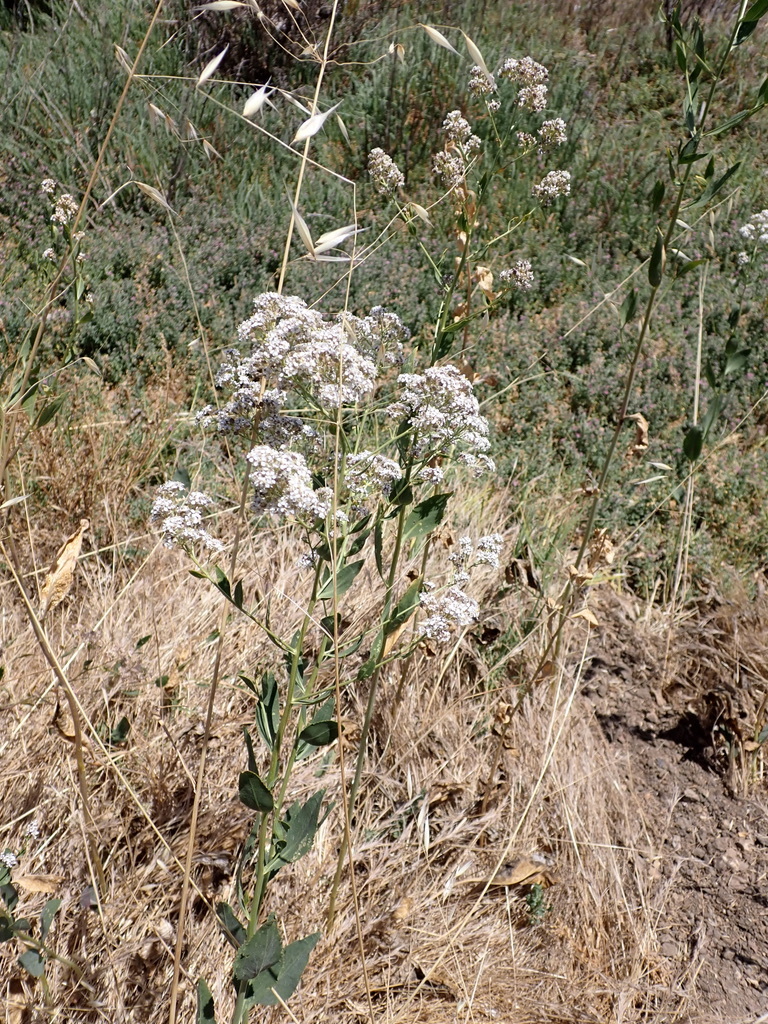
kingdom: Plantae
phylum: Tracheophyta
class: Magnoliopsida
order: Brassicales
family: Brassicaceae
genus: Lepidium
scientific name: Lepidium latifolium
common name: Dittander
